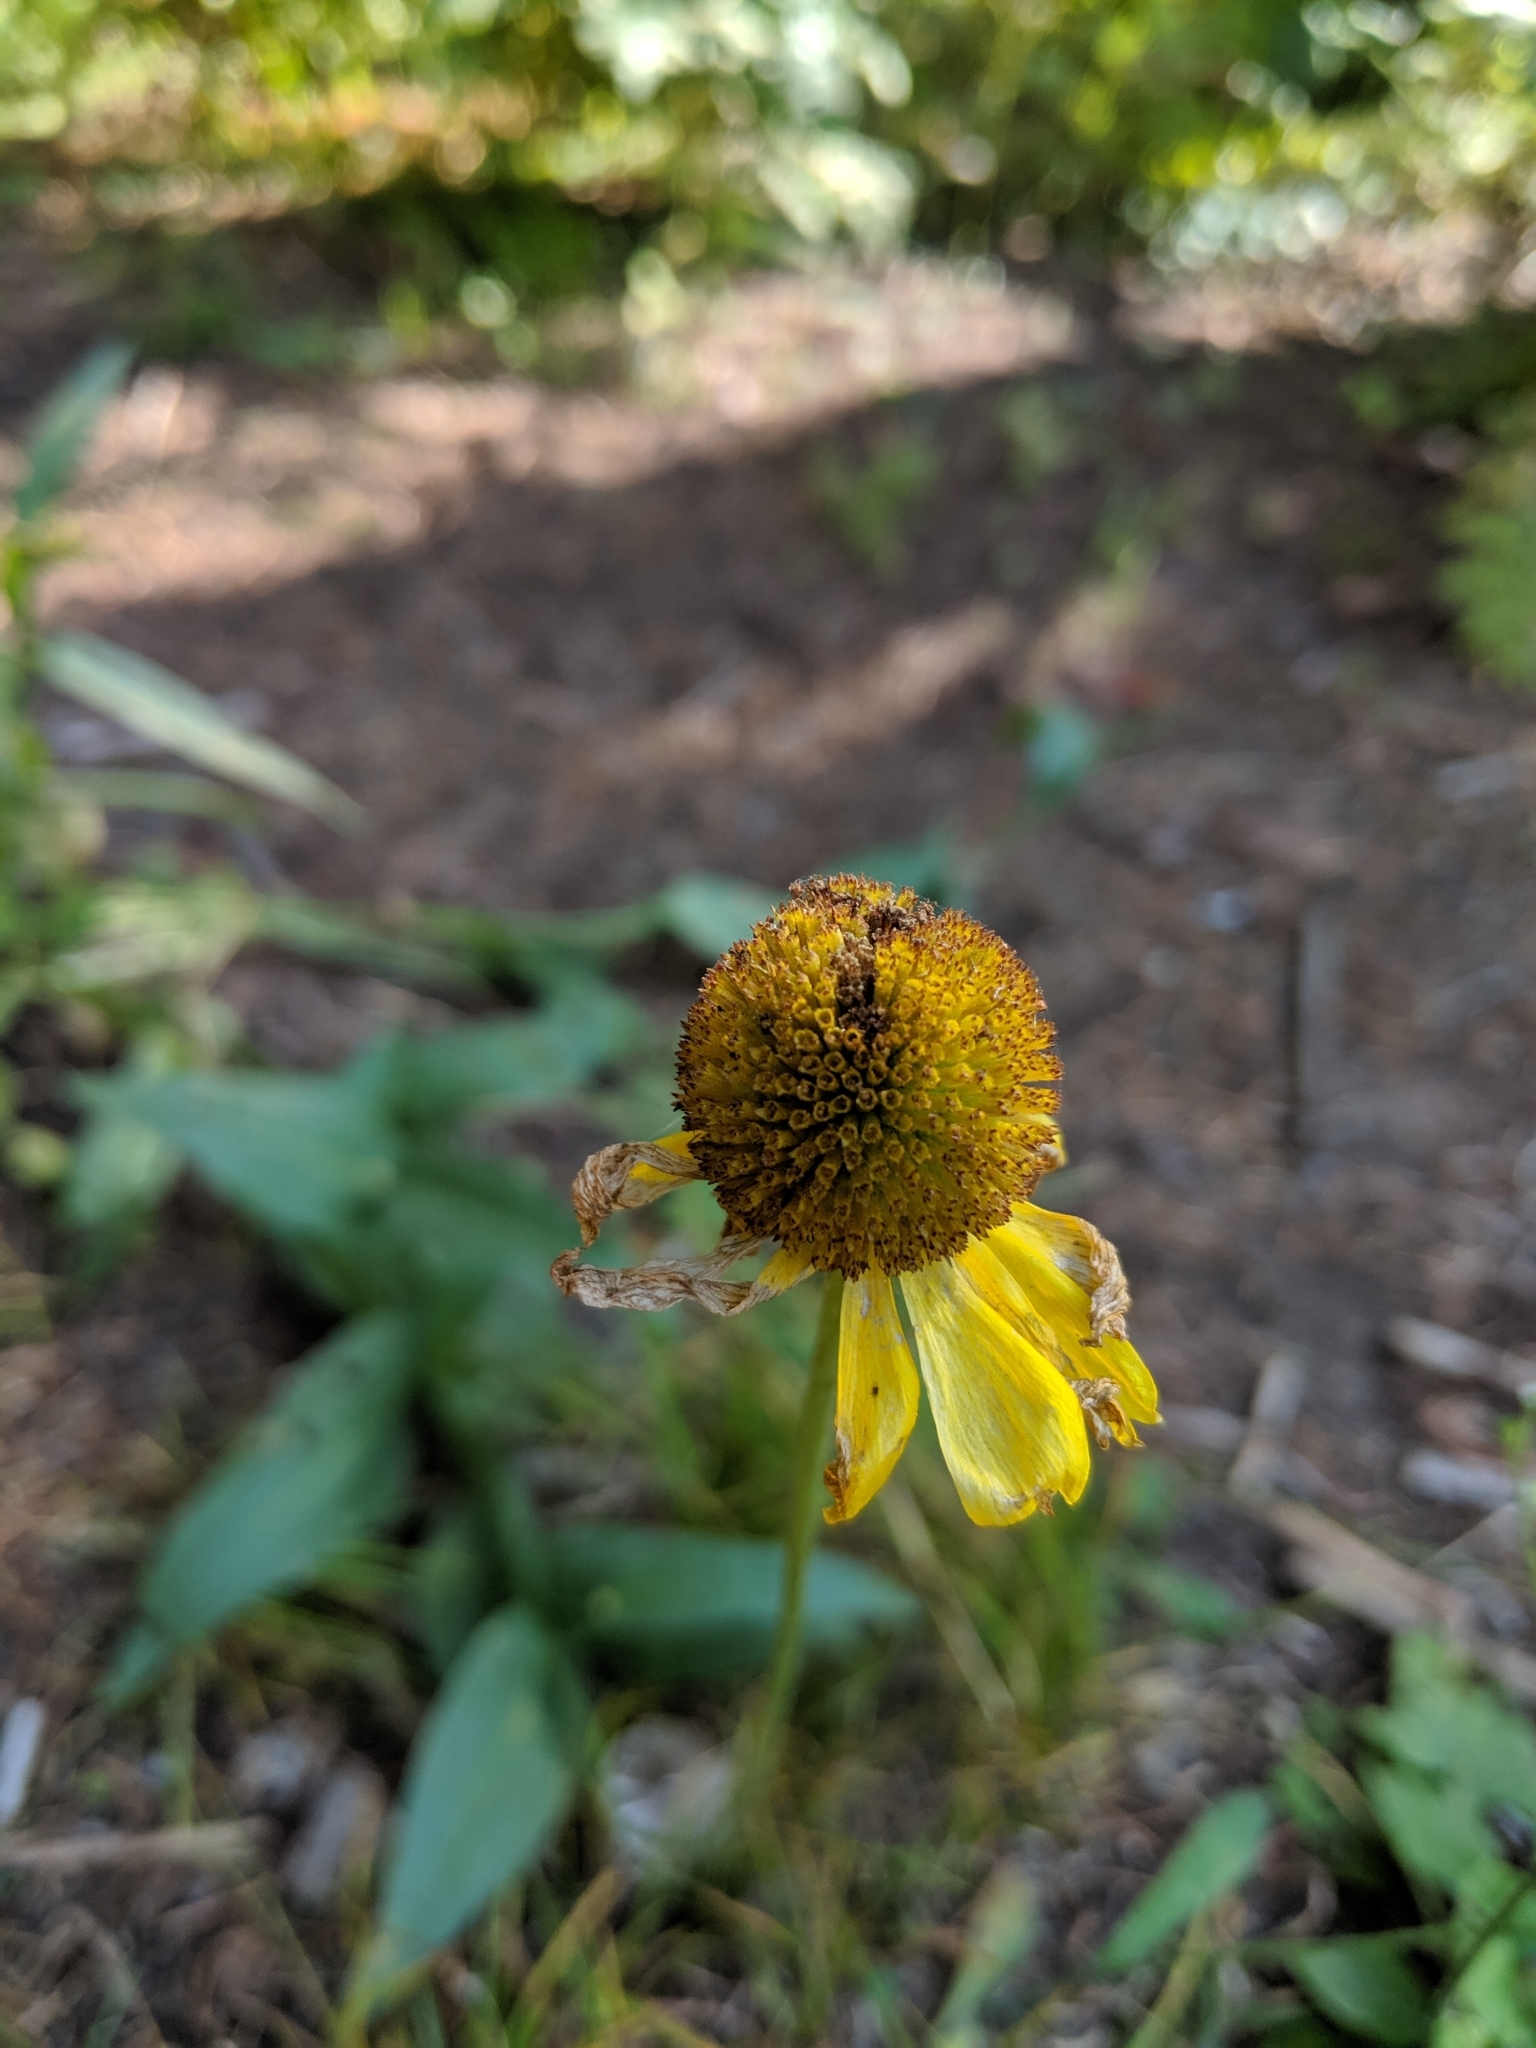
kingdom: Plantae
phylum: Tracheophyta
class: Magnoliopsida
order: Asterales
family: Asteraceae
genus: Helenium
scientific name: Helenium bigelovii
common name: Bigelow's sneezeweed
